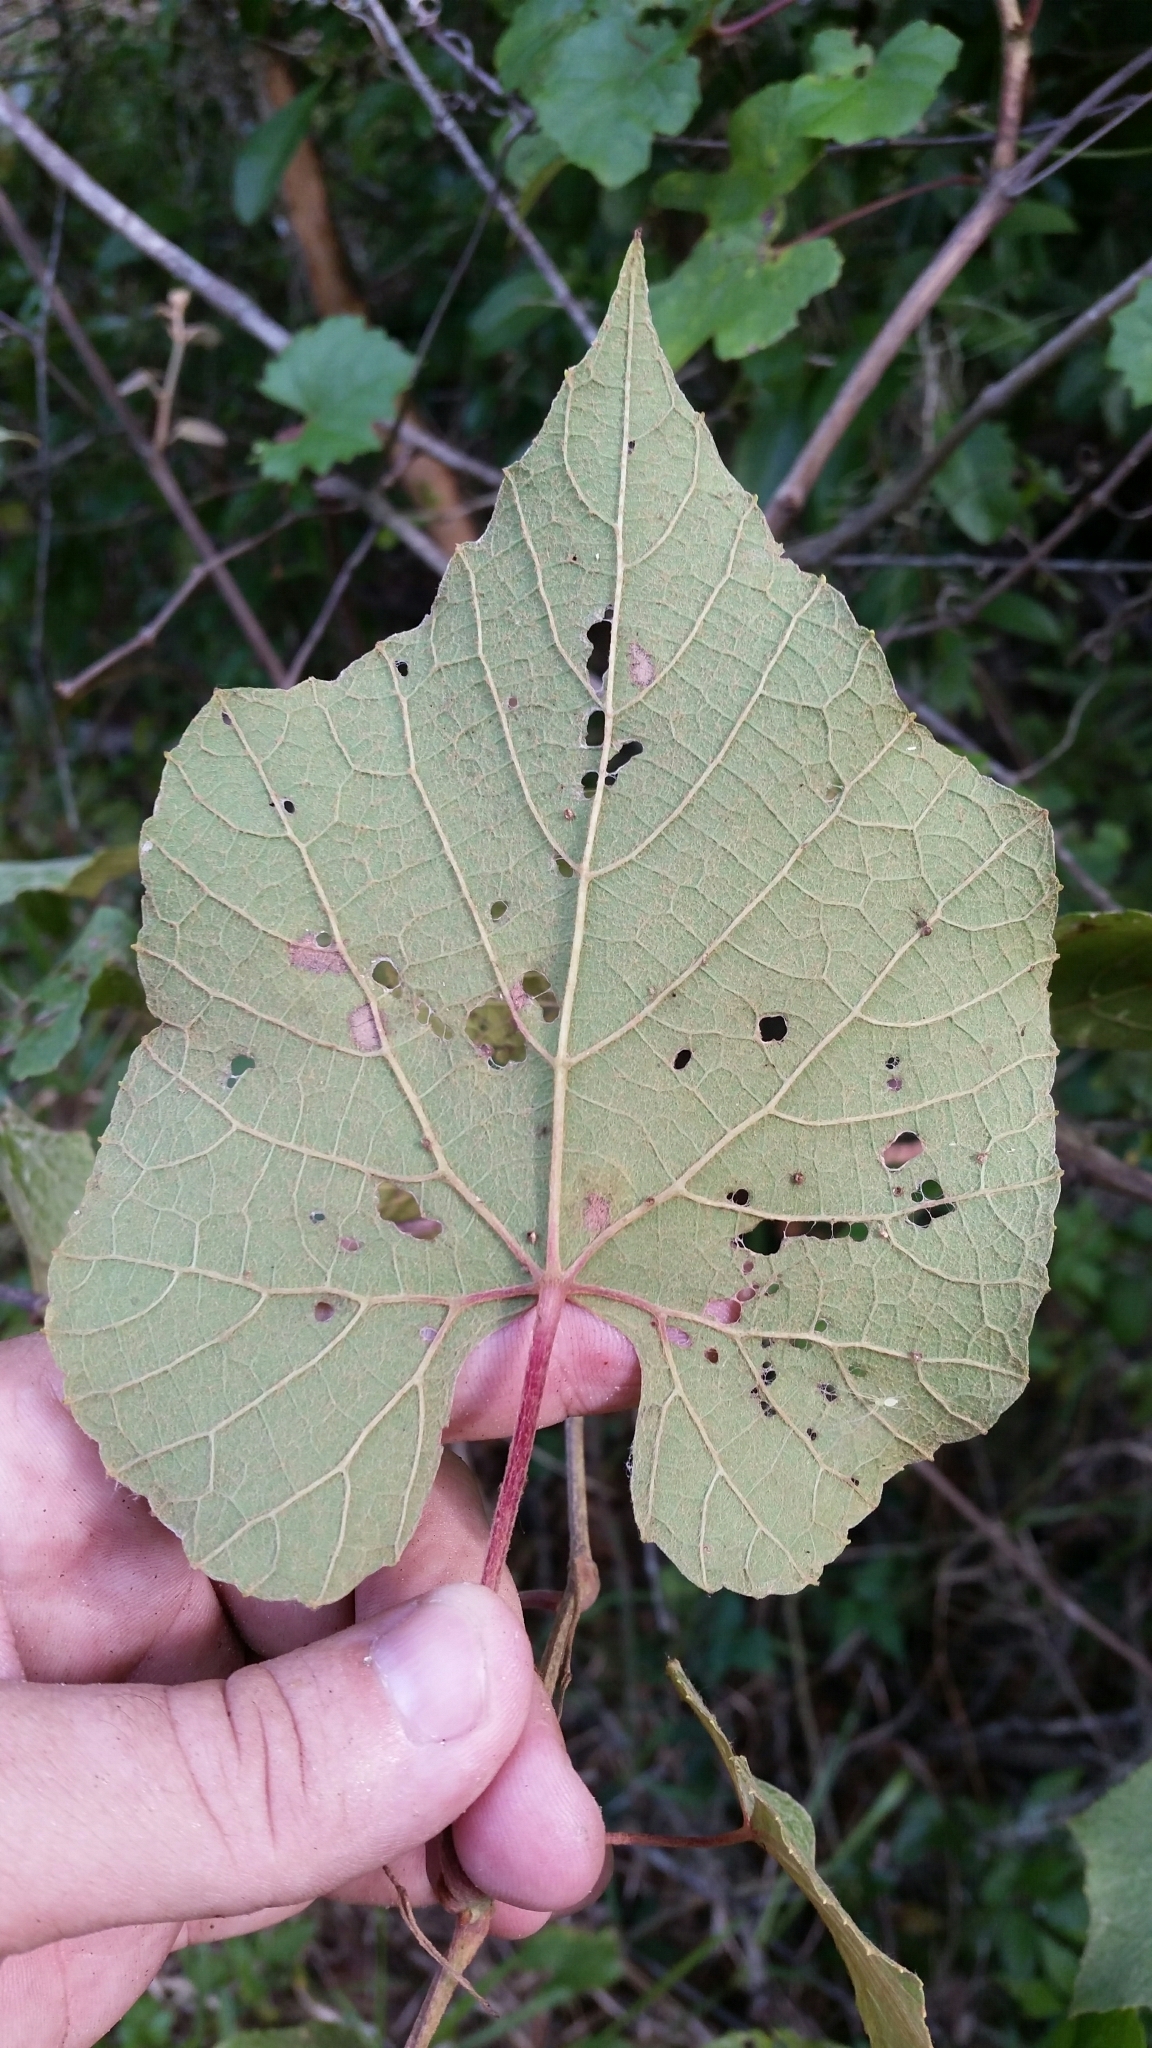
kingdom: Plantae
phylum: Tracheophyta
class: Magnoliopsida
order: Vitales
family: Vitaceae
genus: Vitis
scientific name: Vitis cinerea
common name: Ashy grape
